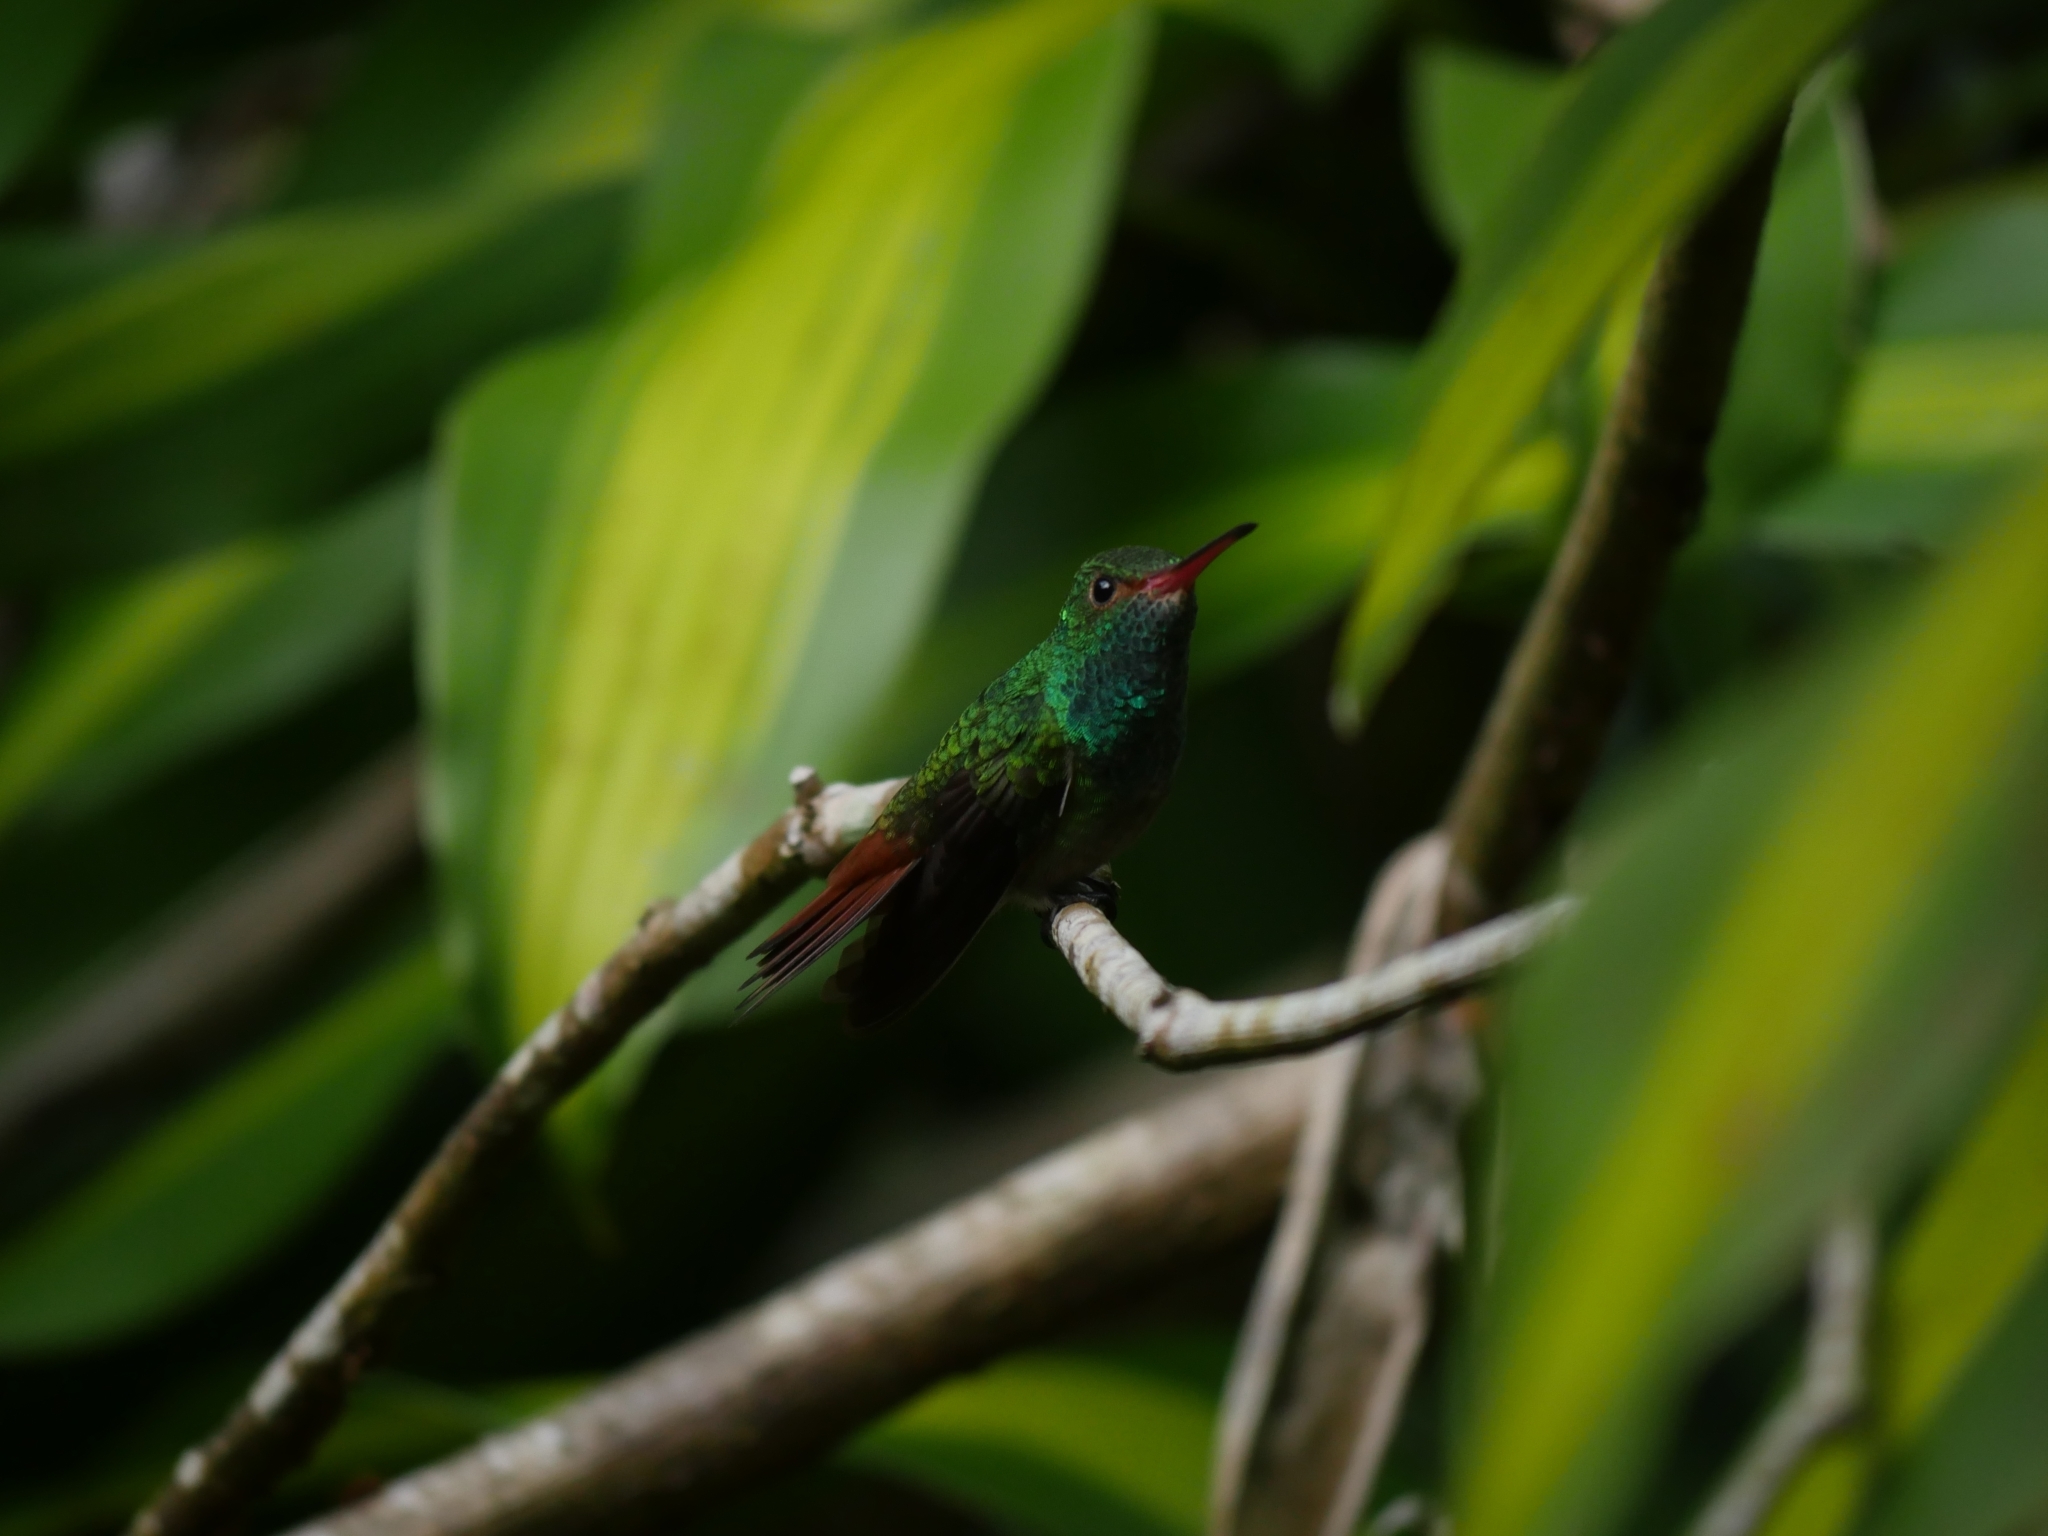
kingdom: Animalia
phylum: Chordata
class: Aves
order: Apodiformes
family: Trochilidae
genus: Amazilia
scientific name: Amazilia tzacatl
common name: Rufous-tailed hummingbird
